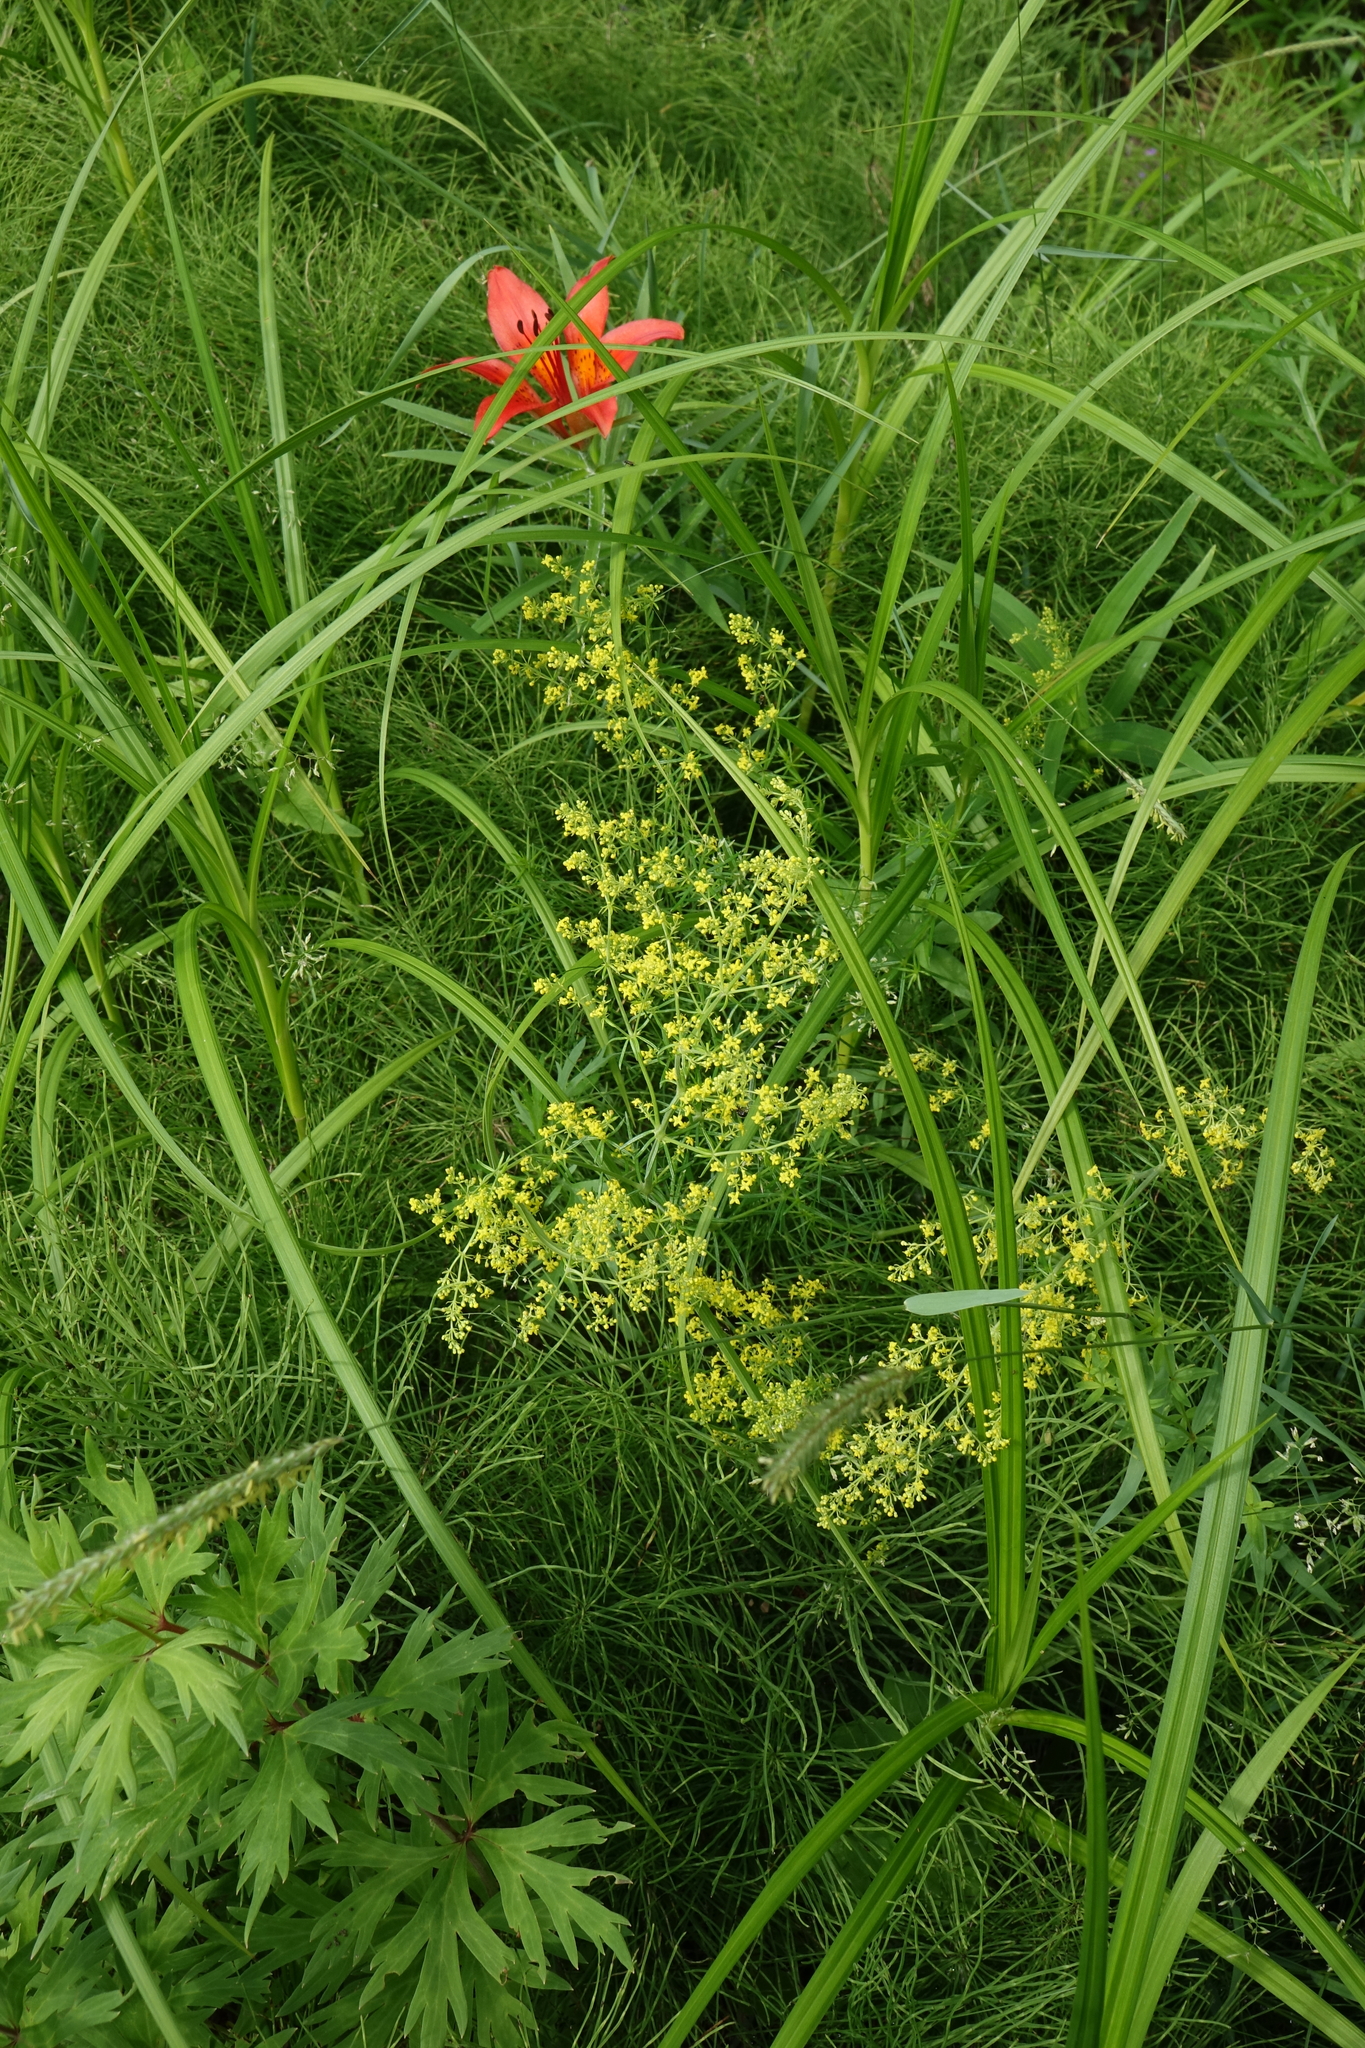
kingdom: Plantae
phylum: Tracheophyta
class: Magnoliopsida
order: Gentianales
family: Rubiaceae
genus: Galium
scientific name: Galium verum
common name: Lady's bedstraw
